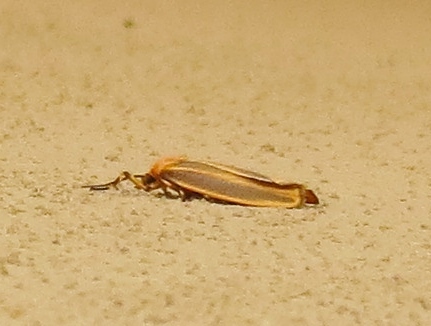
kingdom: Animalia
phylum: Arthropoda
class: Insecta
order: Lepidoptera
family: Erebidae
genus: Hypoprepia
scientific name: Hypoprepia fucosa
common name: Painted lichen moth
